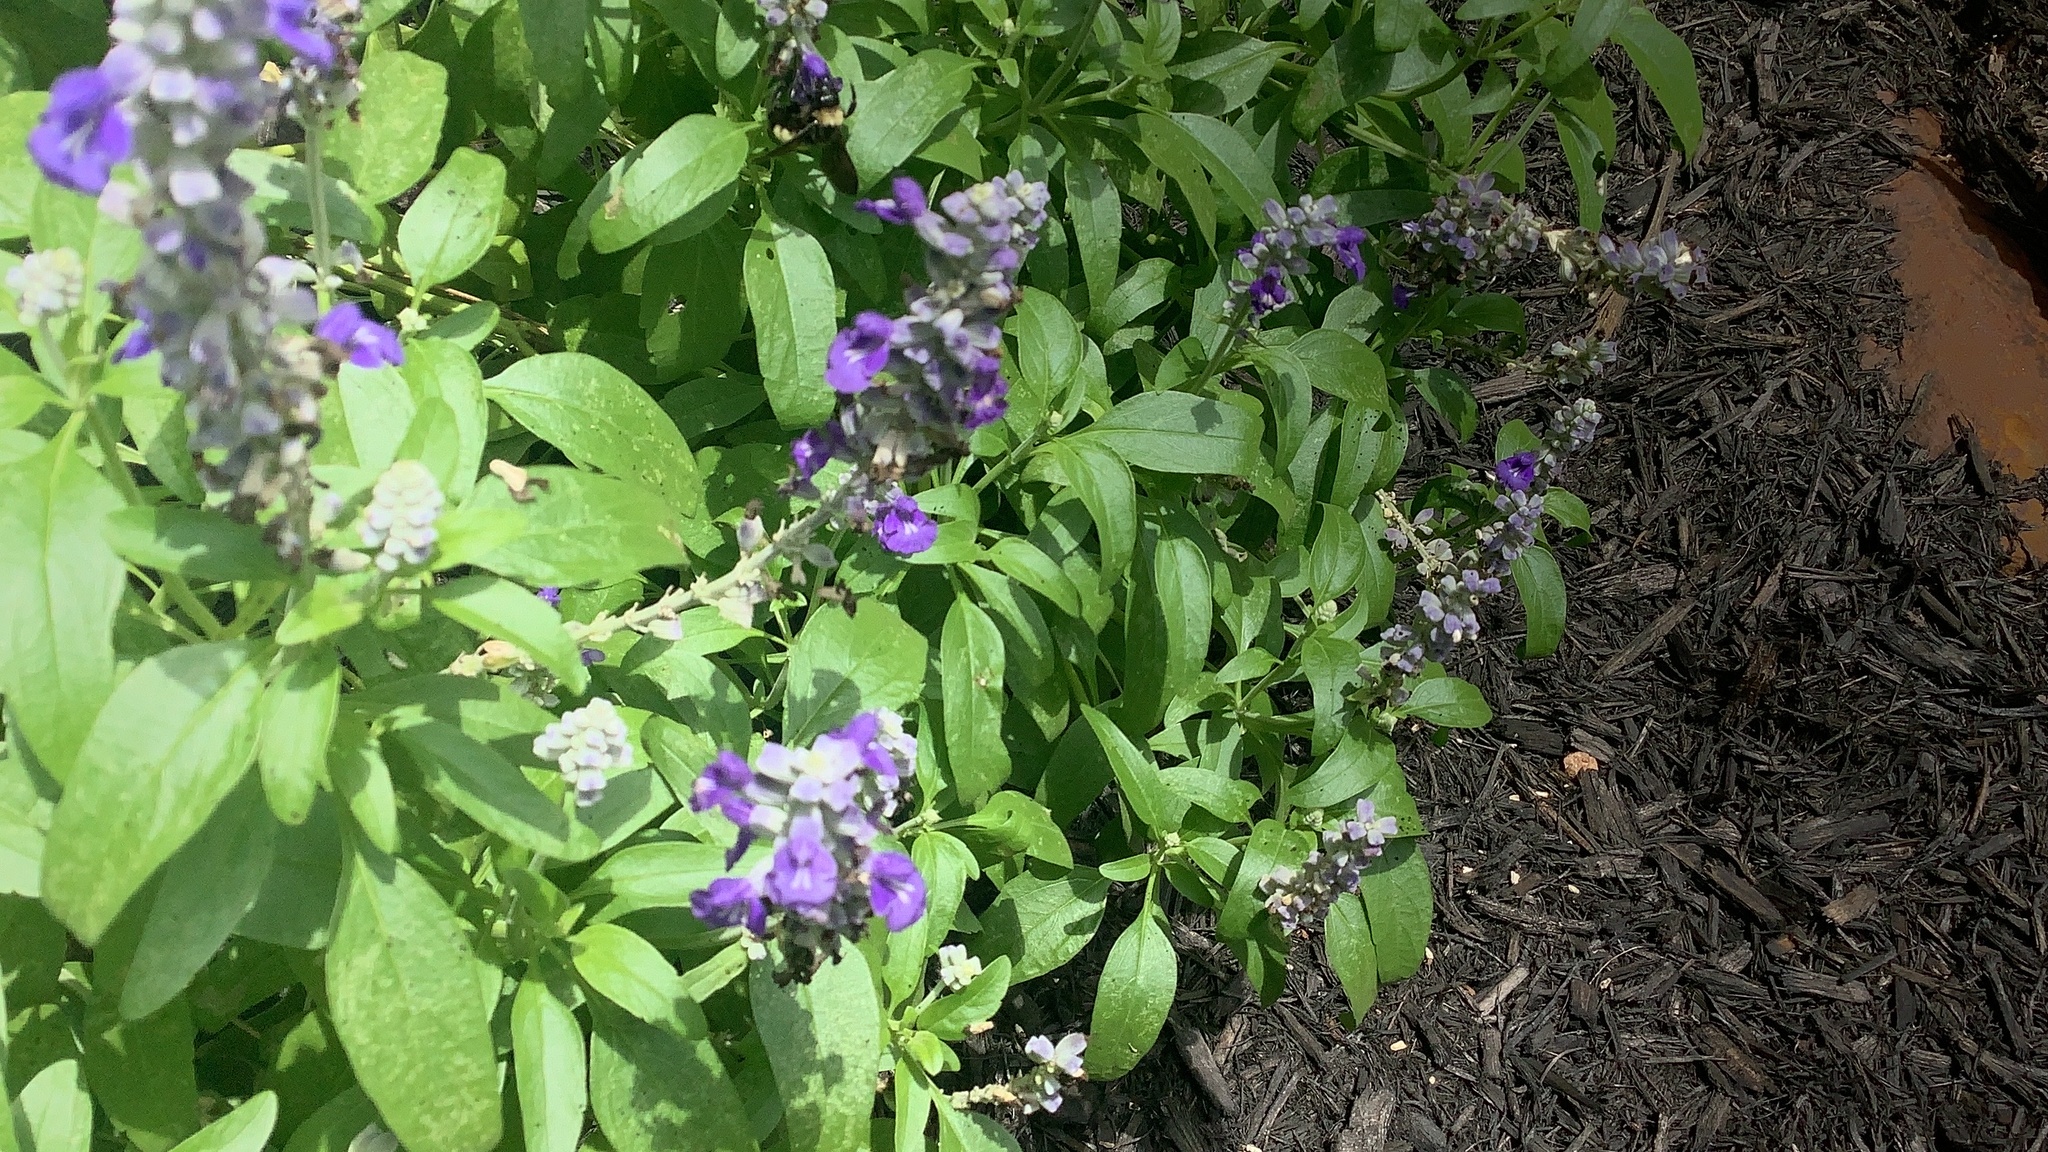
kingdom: Animalia
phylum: Arthropoda
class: Insecta
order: Hymenoptera
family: Apidae
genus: Bombus
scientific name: Bombus pensylvanicus
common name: Bumble bee
